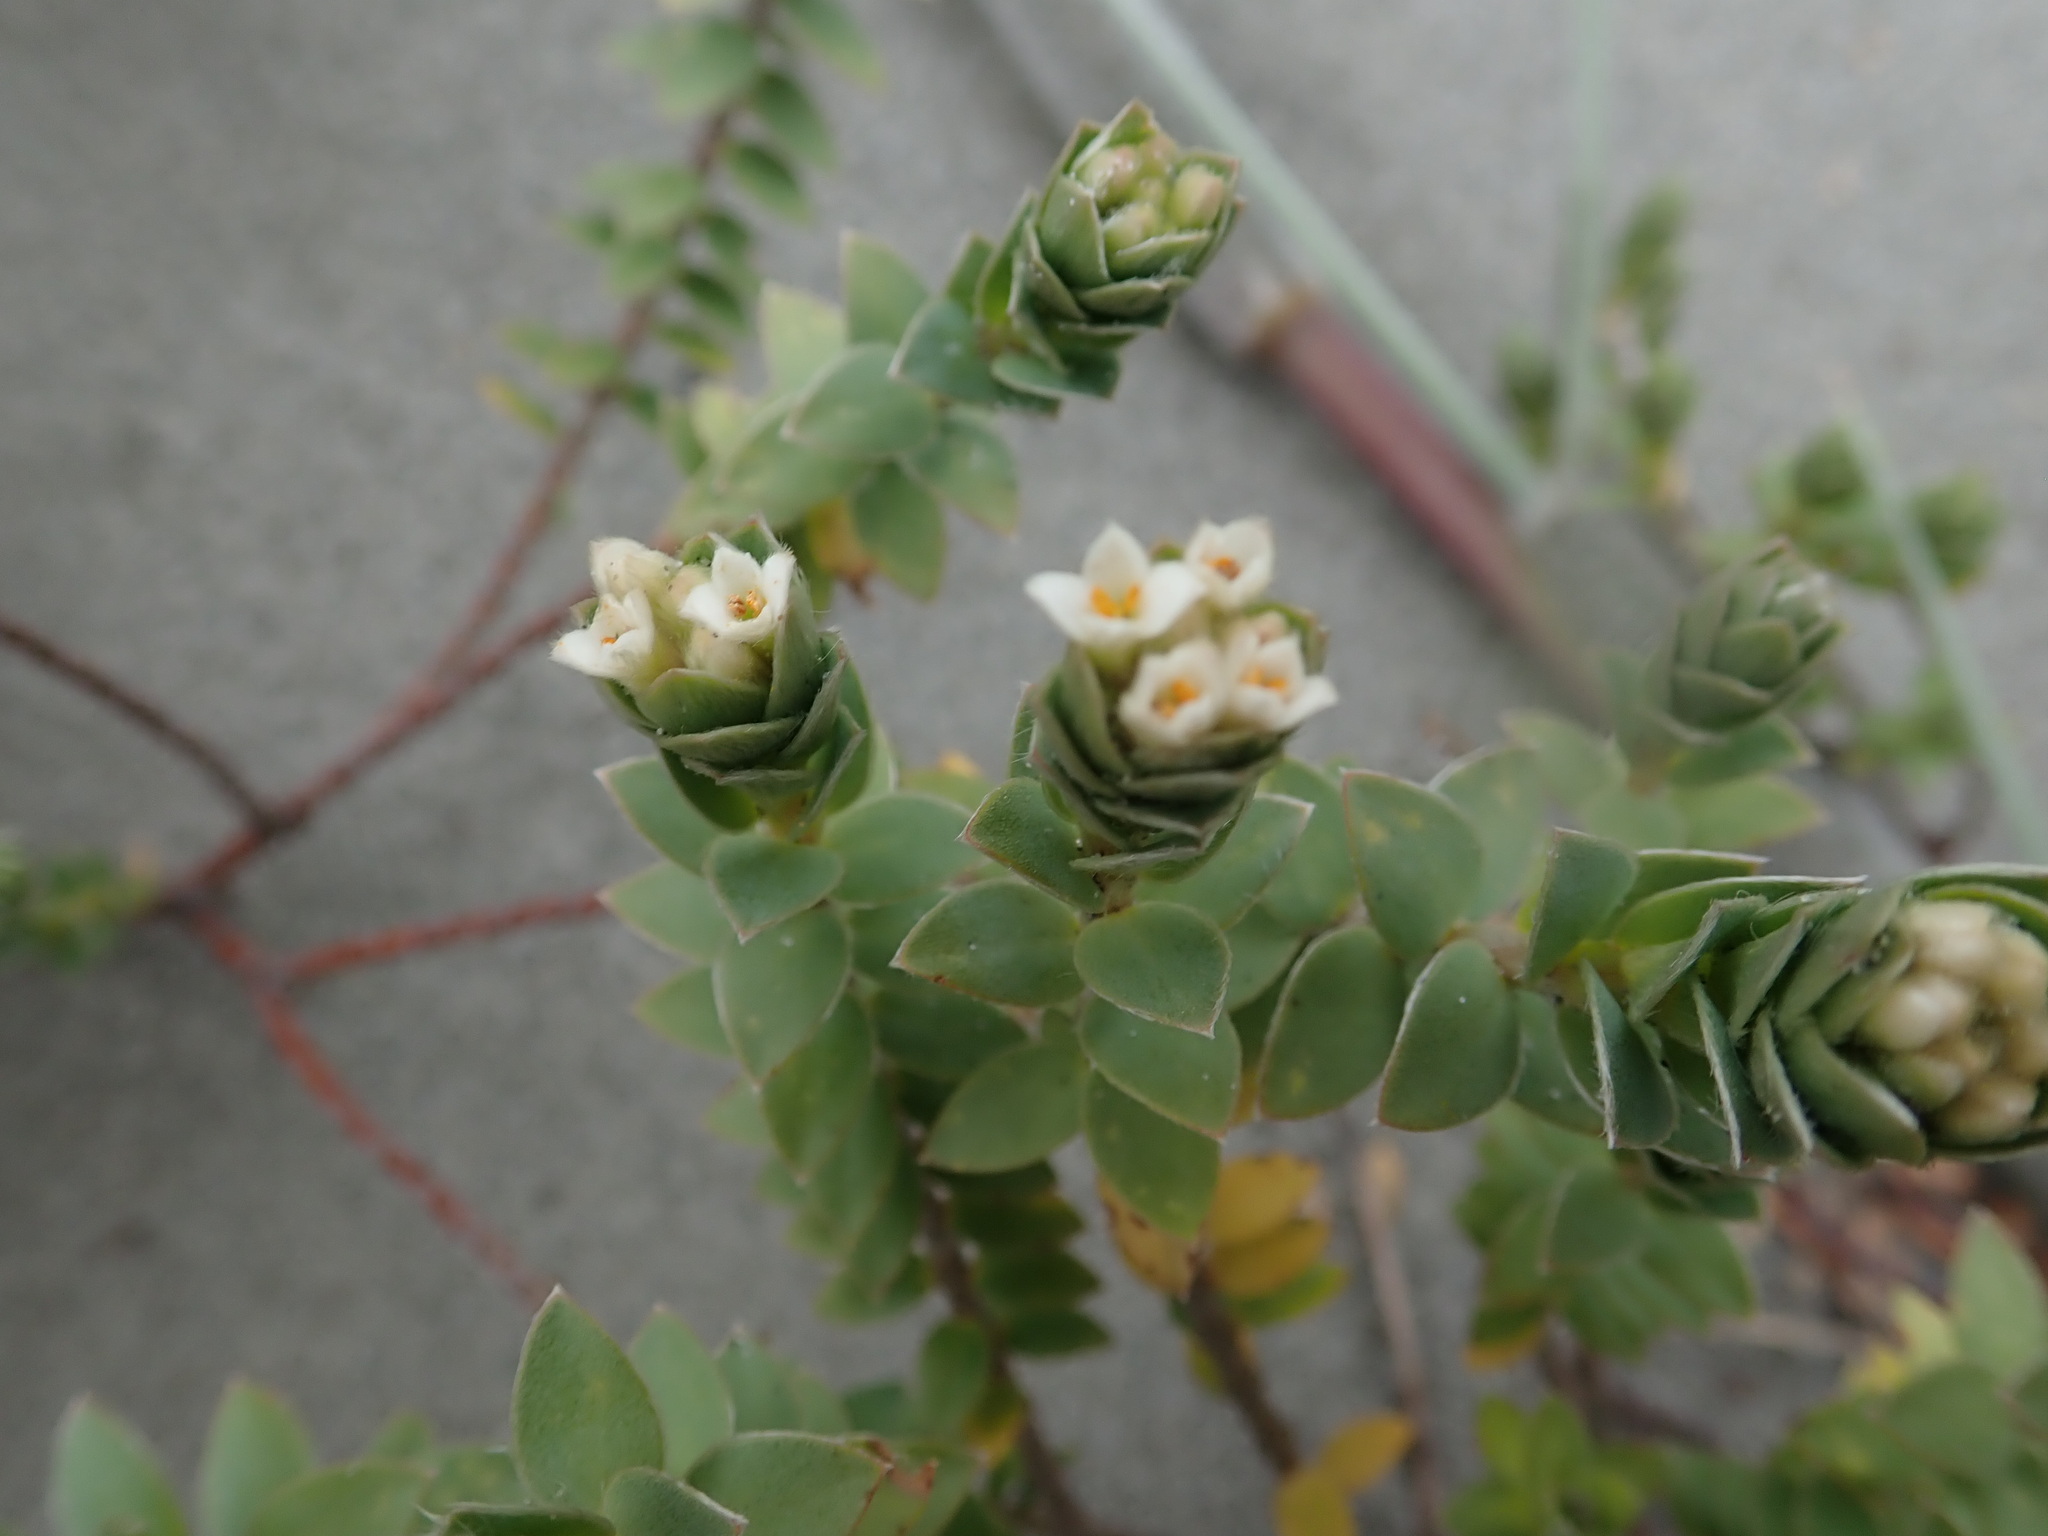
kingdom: Plantae
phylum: Tracheophyta
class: Magnoliopsida
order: Malvales
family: Thymelaeaceae
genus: Pimelea
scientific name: Pimelea villosa
